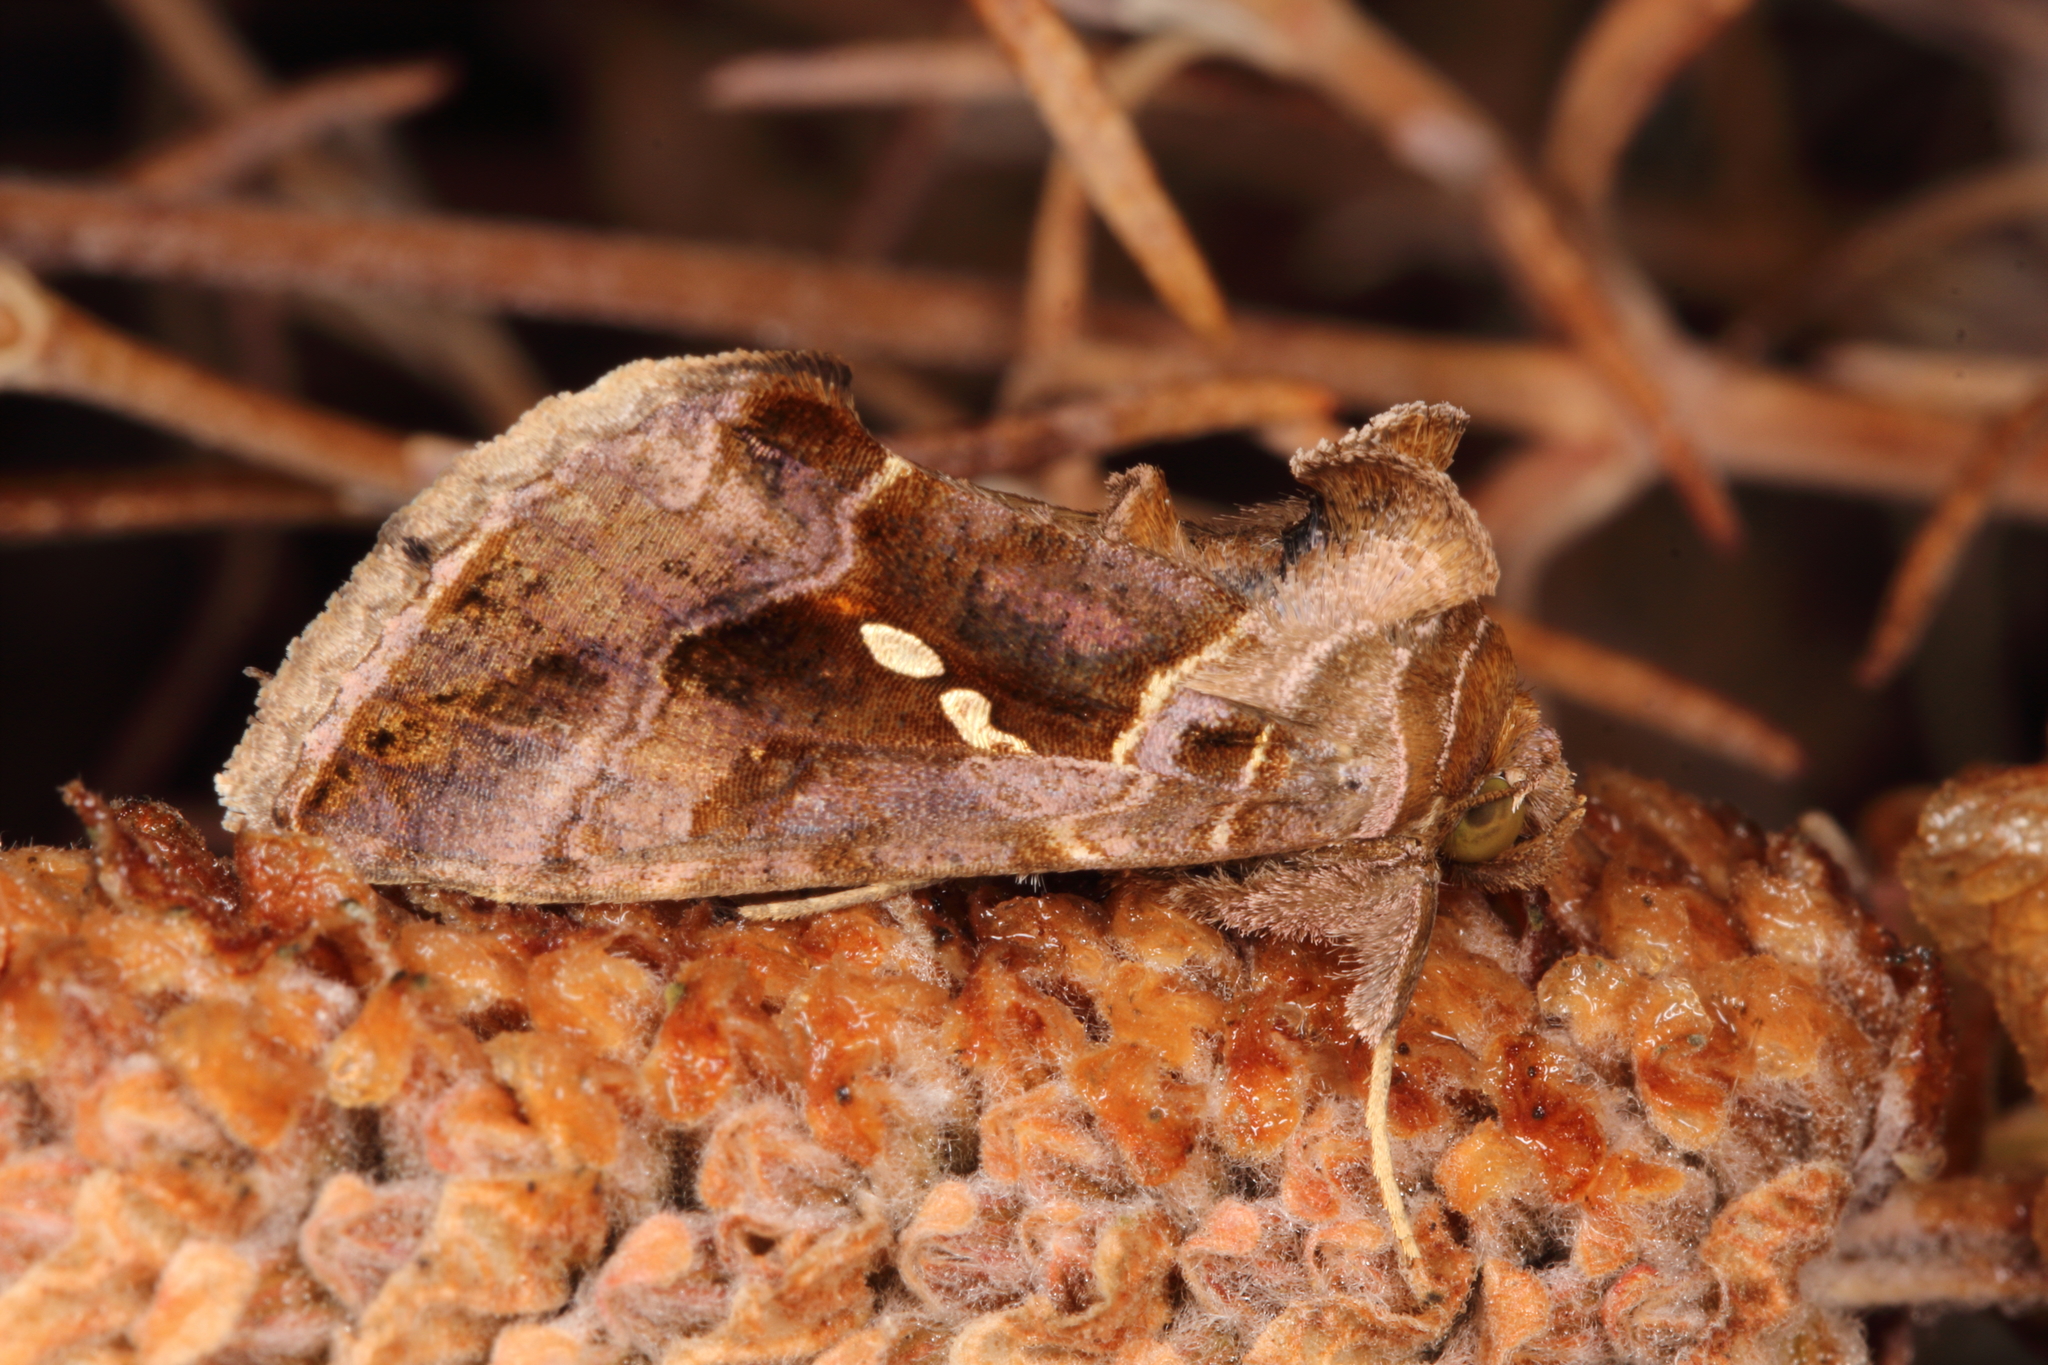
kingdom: Animalia
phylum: Arthropoda
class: Insecta
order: Lepidoptera
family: Noctuidae
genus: Chrysodeixis
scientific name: Chrysodeixis eriosoma
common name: Green garden looper
